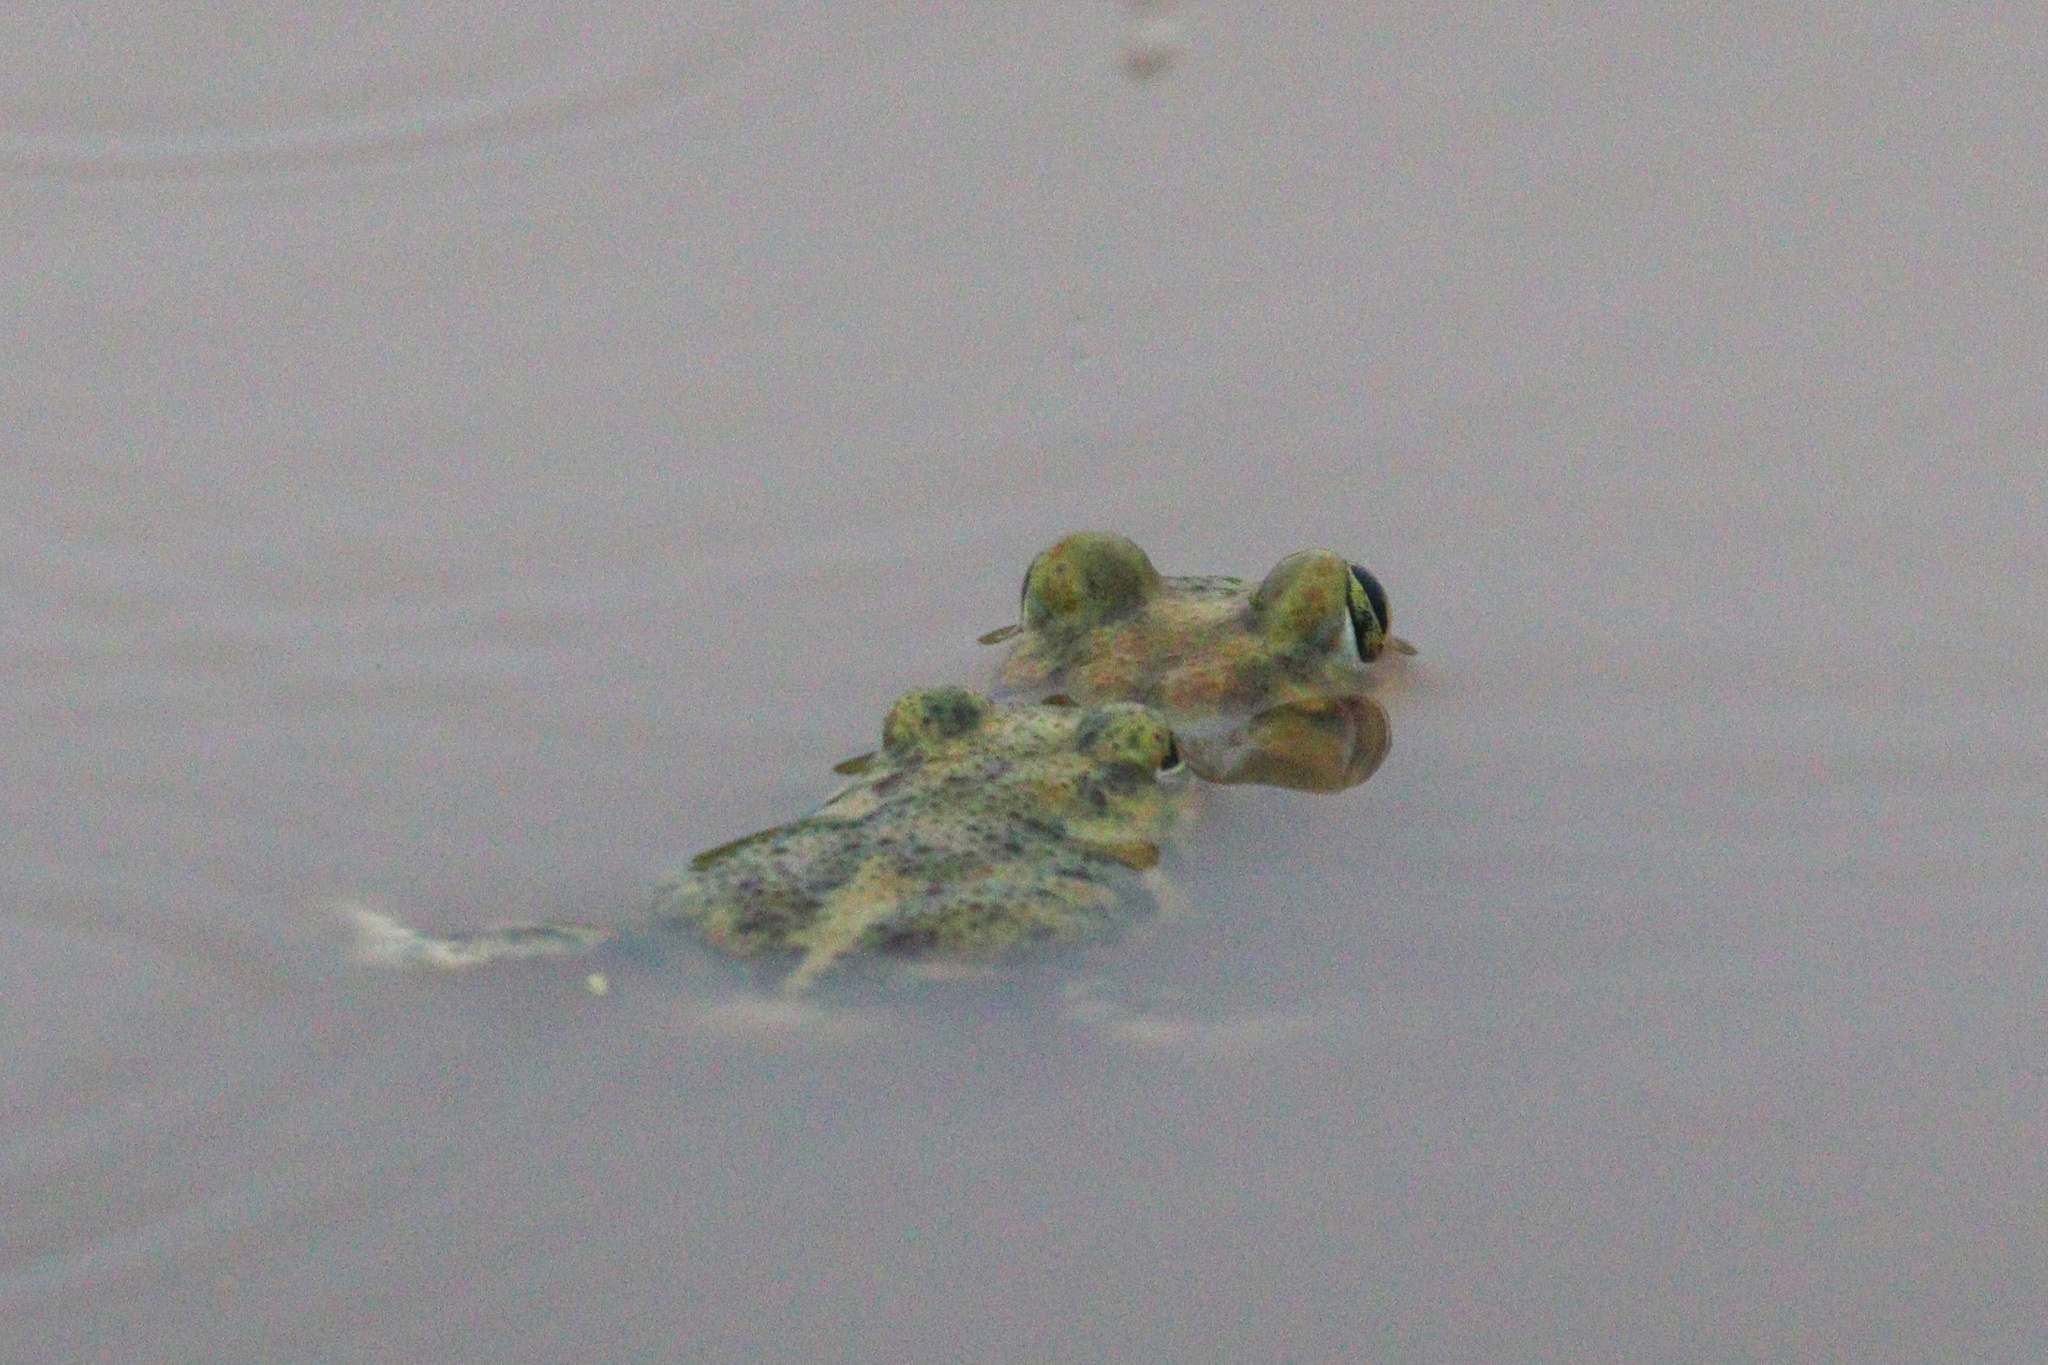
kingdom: Animalia
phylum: Chordata
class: Amphibia
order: Anura
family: Scaphiopodidae
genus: Scaphiopus
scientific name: Scaphiopus couchii
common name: Couch's spadefoot toad
